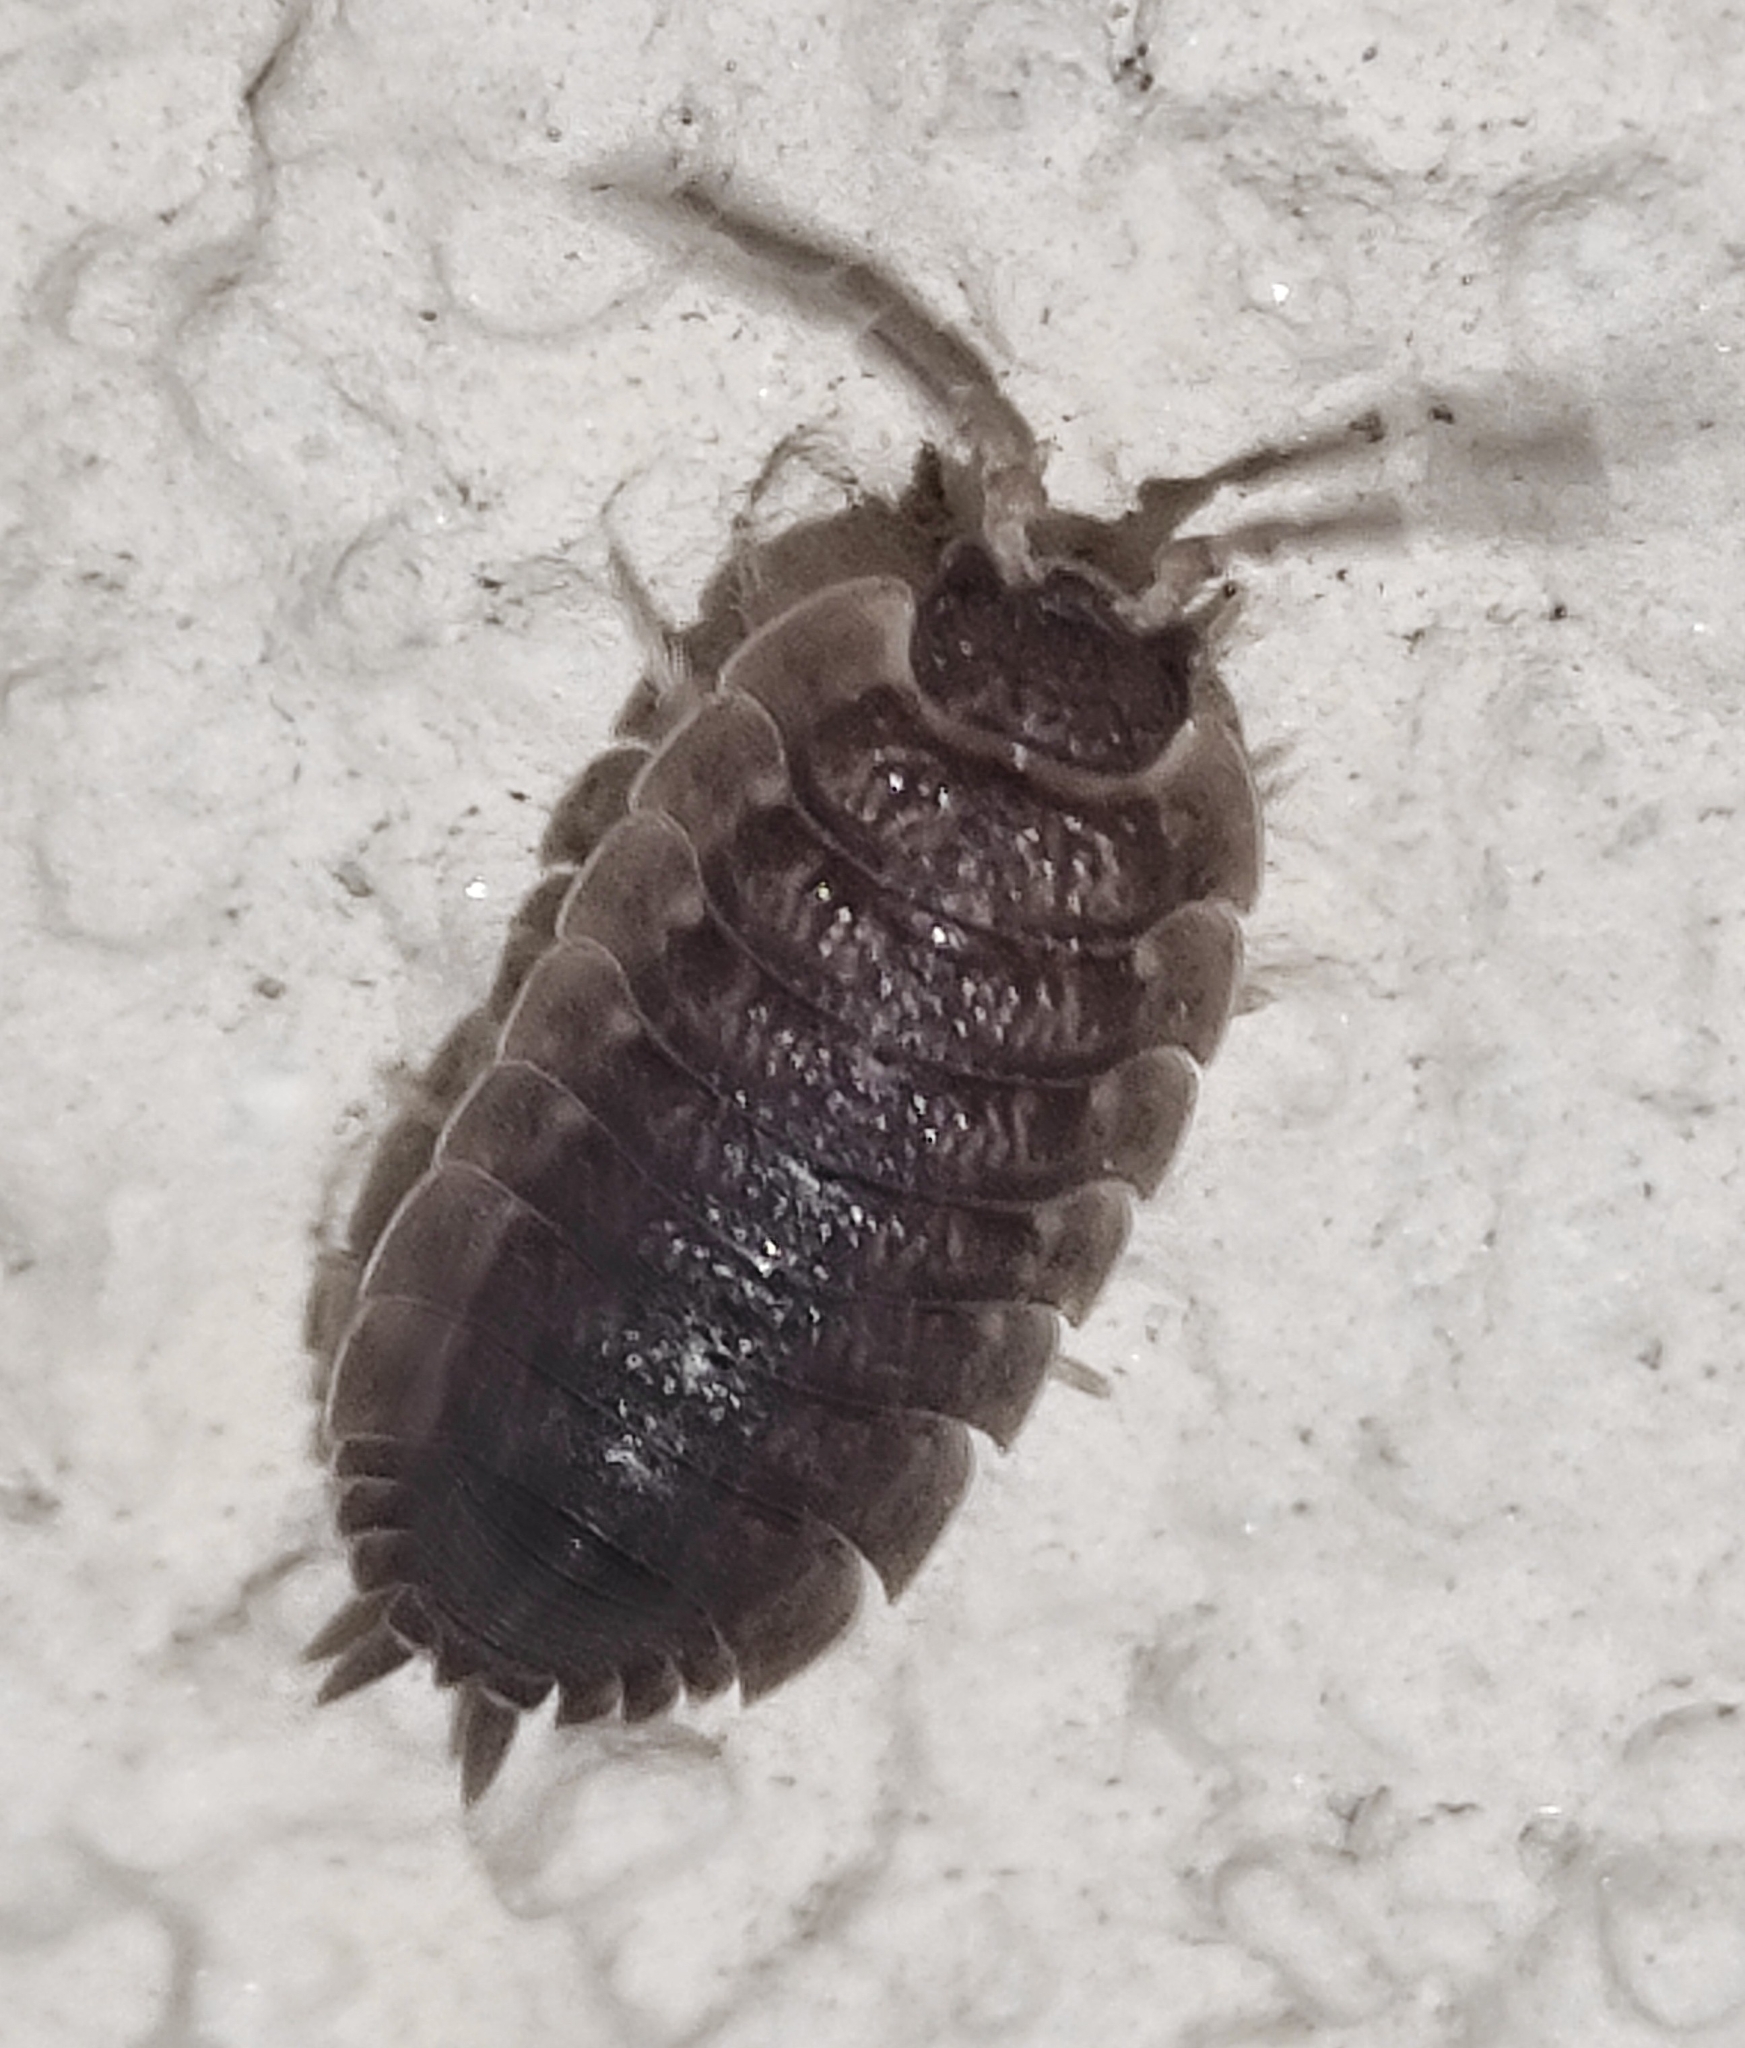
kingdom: Animalia
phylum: Arthropoda
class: Malacostraca
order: Isopoda
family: Porcellionidae
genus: Porcellio
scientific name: Porcellio scaber
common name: Common rough woodlouse
